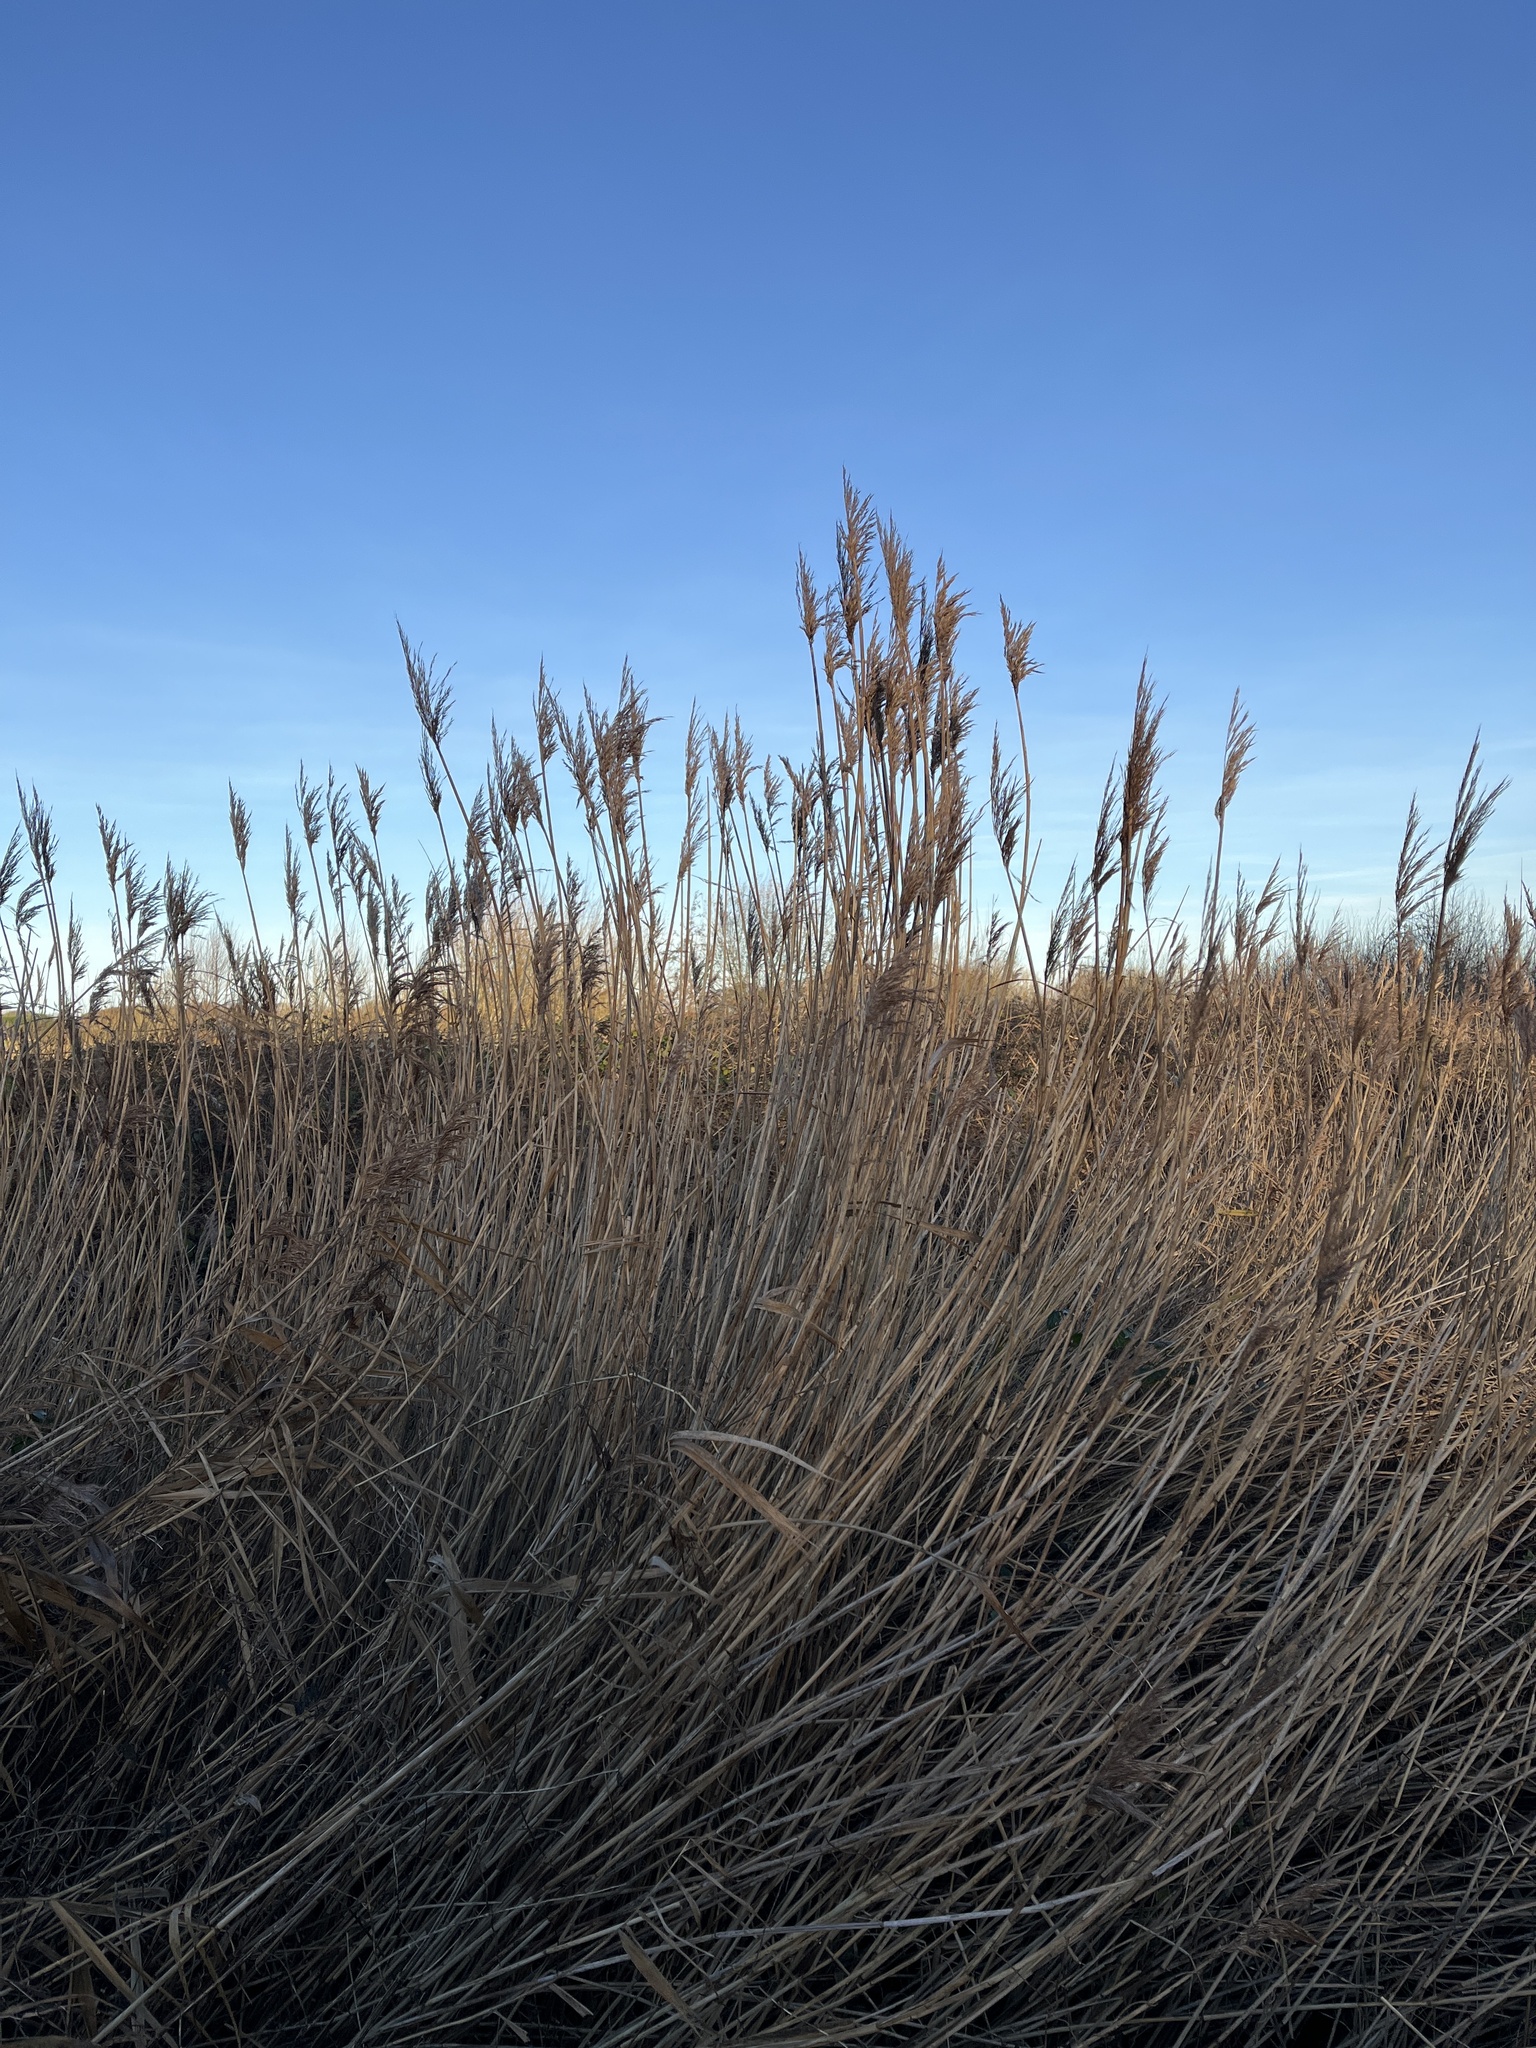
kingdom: Plantae
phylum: Tracheophyta
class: Liliopsida
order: Poales
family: Poaceae
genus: Phragmites
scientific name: Phragmites australis
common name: Common reed
